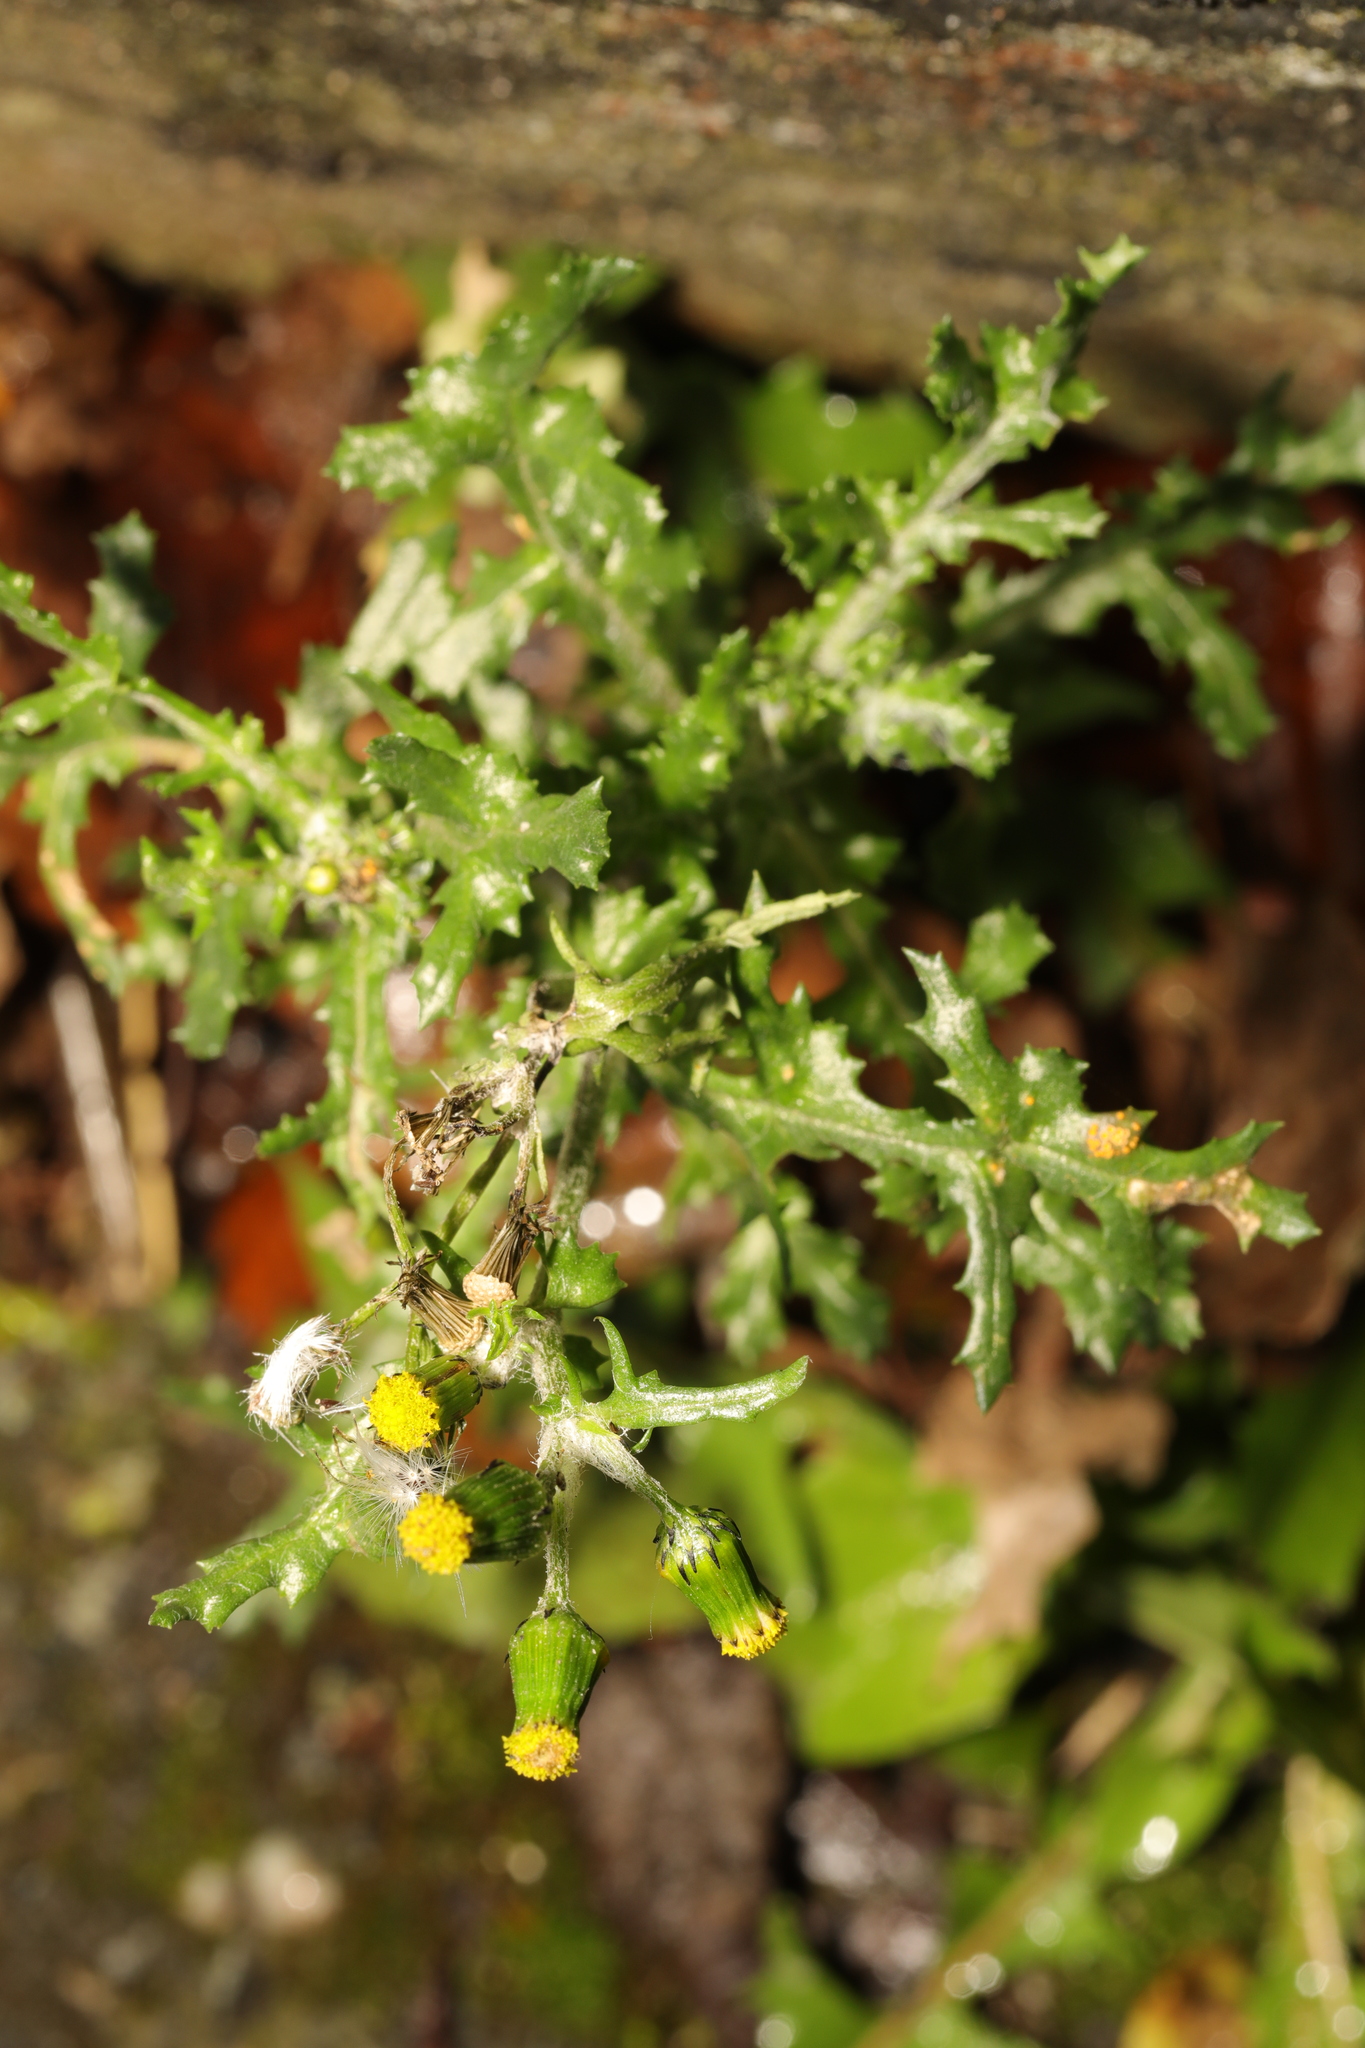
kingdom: Plantae
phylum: Tracheophyta
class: Magnoliopsida
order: Asterales
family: Asteraceae
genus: Senecio
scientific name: Senecio vulgaris
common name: Old-man-in-the-spring
